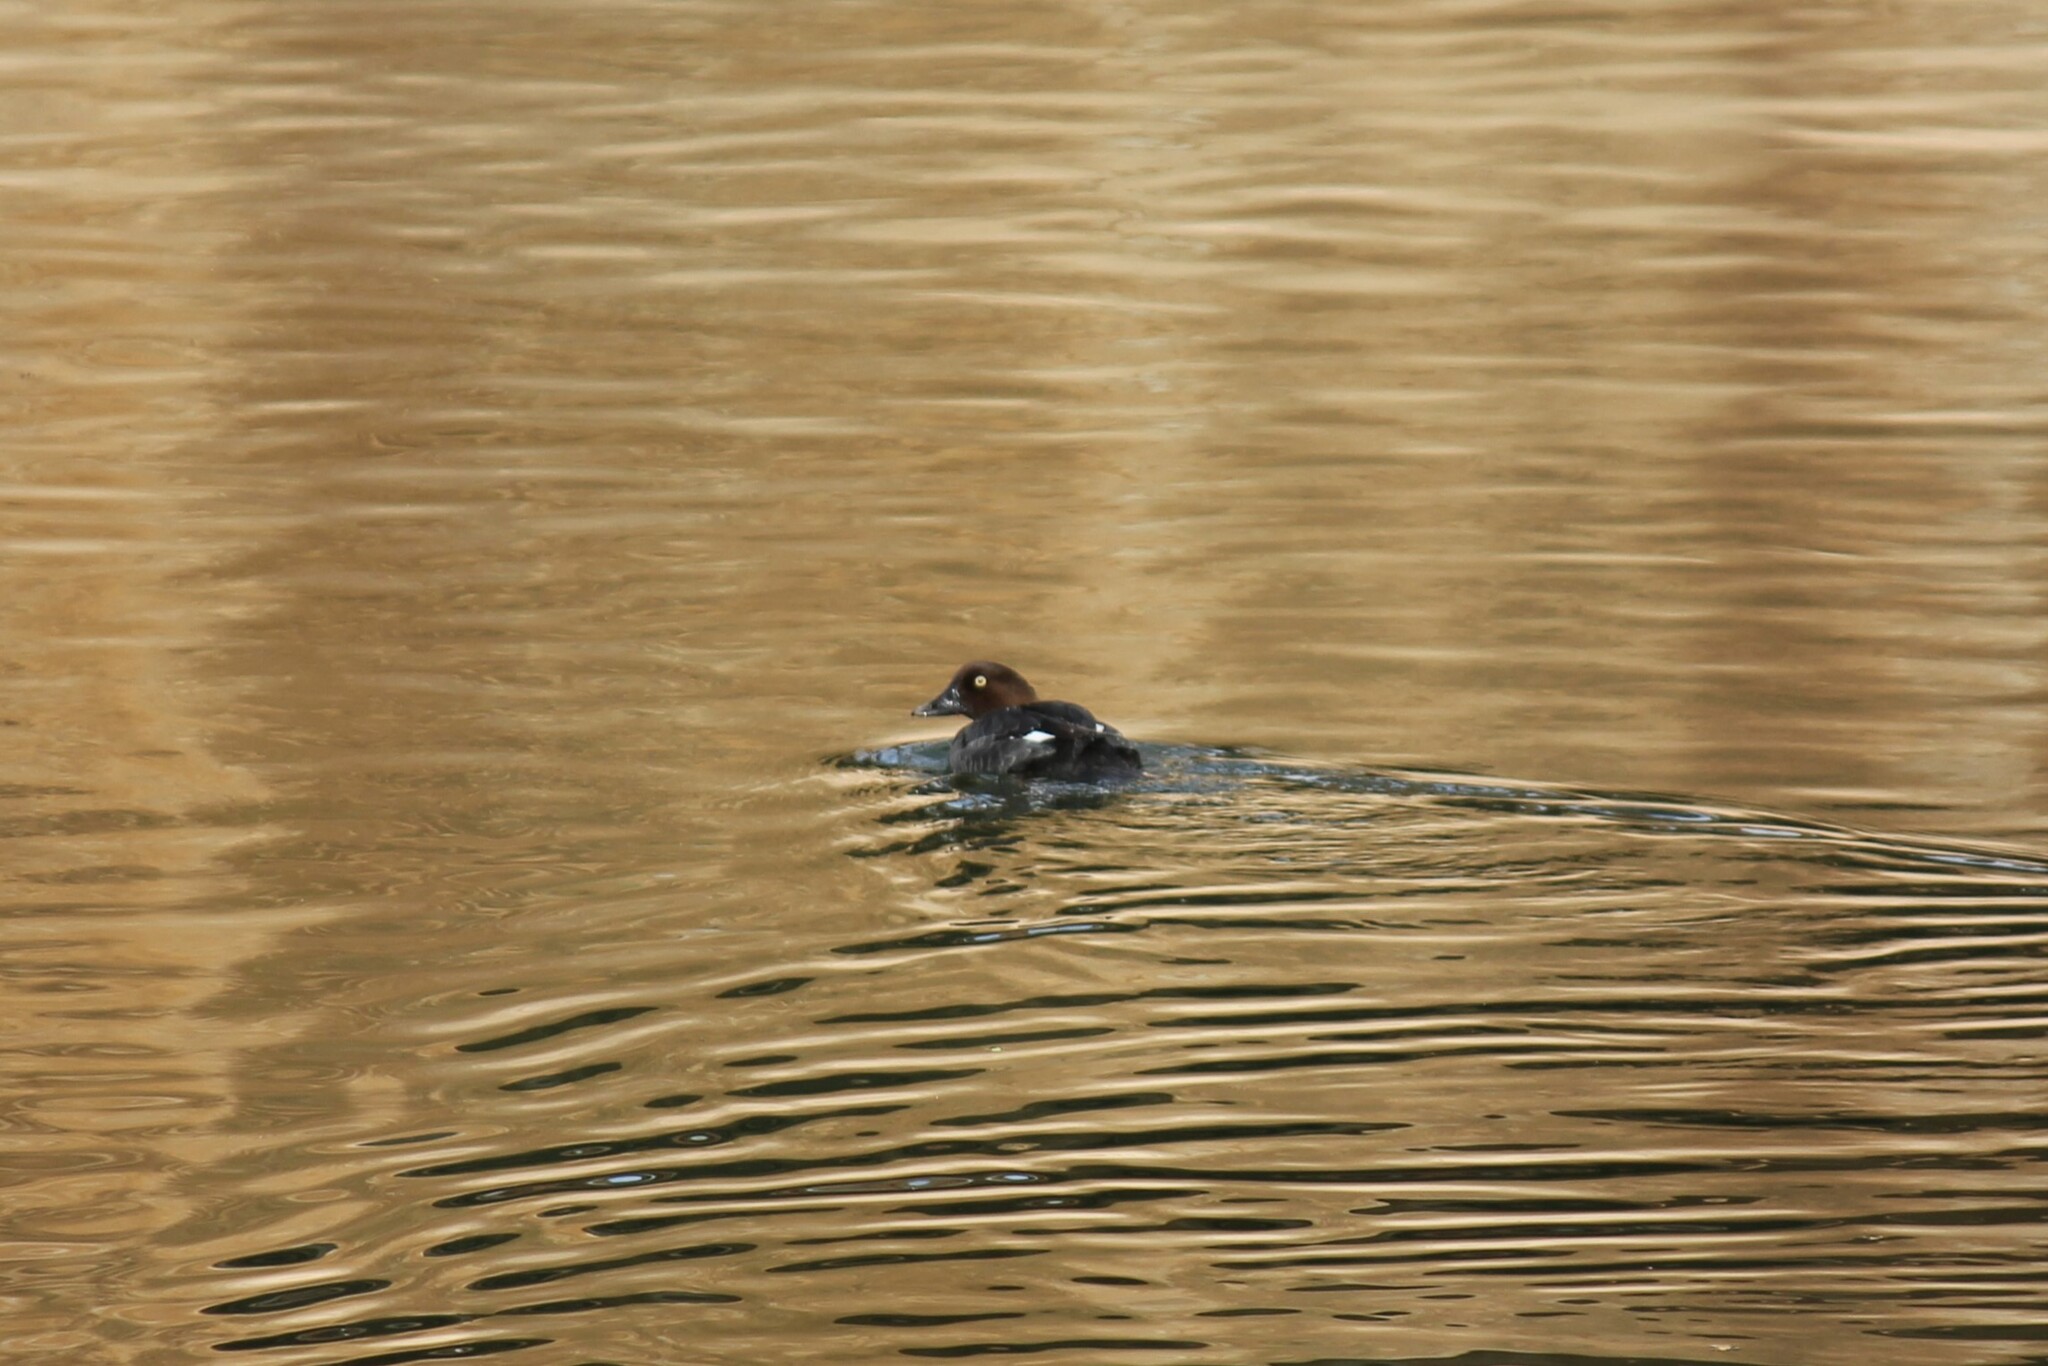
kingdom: Animalia
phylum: Chordata
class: Aves
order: Anseriformes
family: Anatidae
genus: Bucephala
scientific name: Bucephala clangula
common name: Common goldeneye
